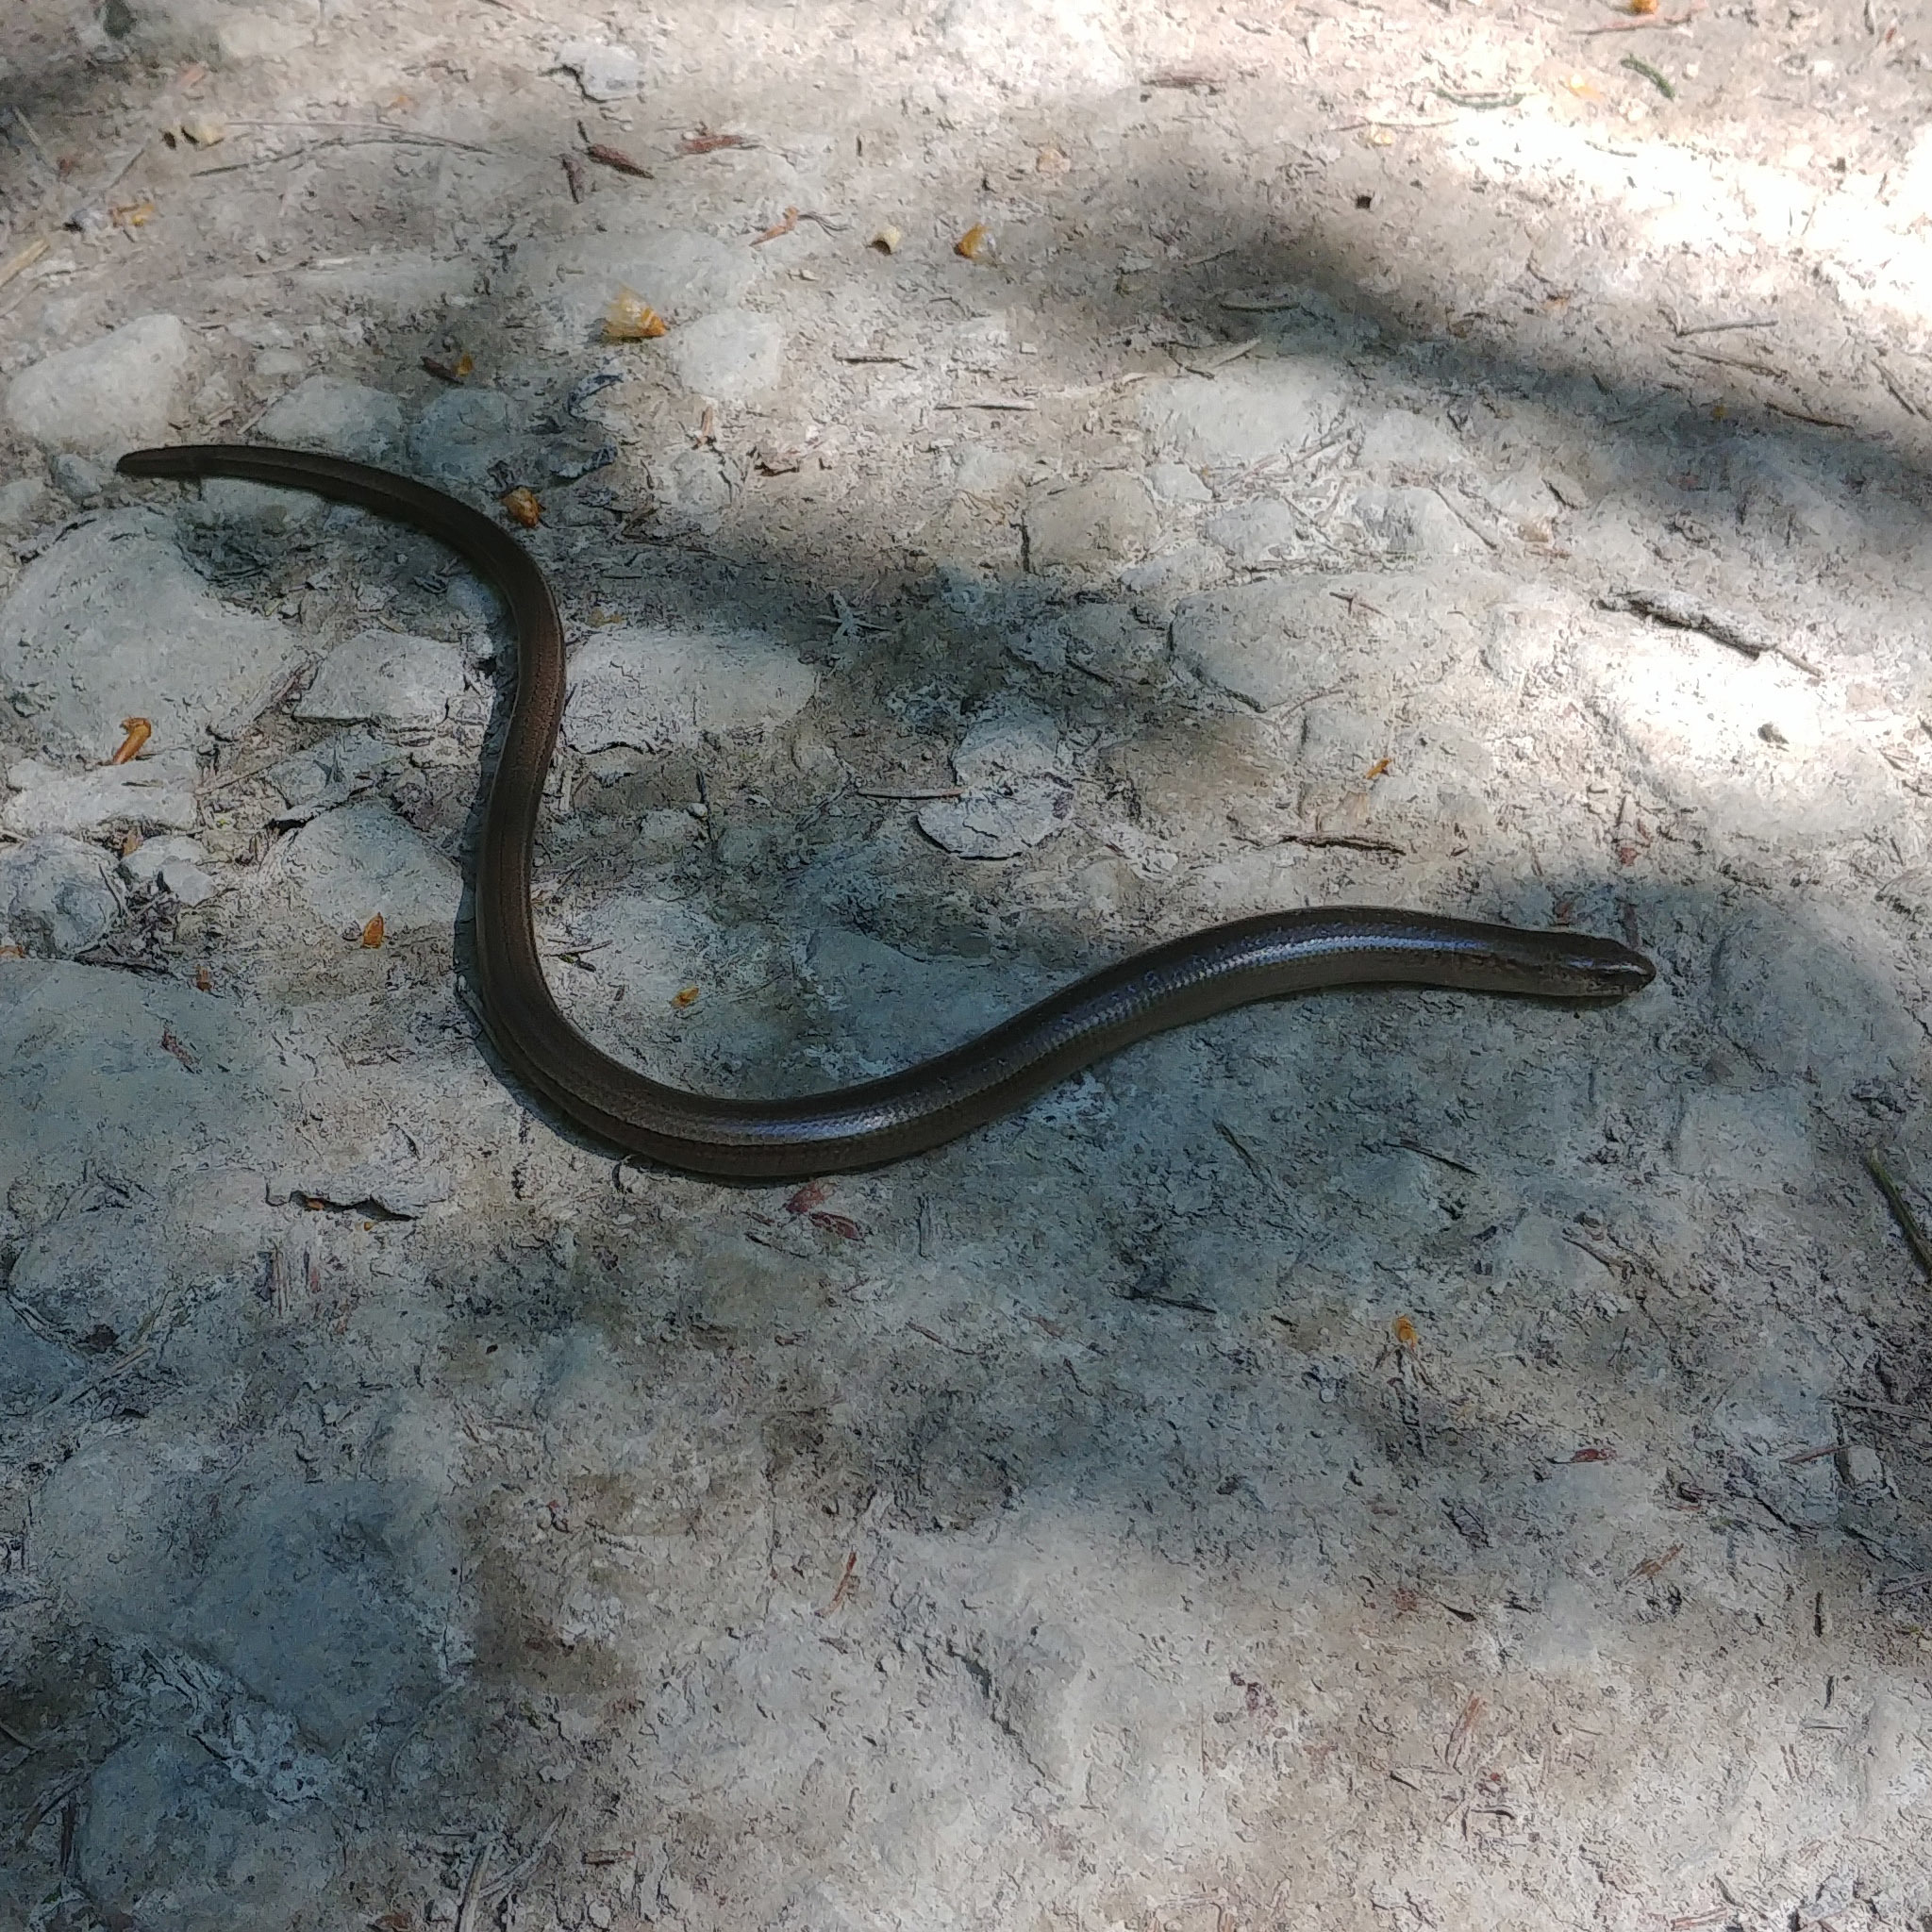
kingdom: Animalia
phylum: Chordata
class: Squamata
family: Anguidae
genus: Anguis
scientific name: Anguis fragilis
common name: Slow worm
